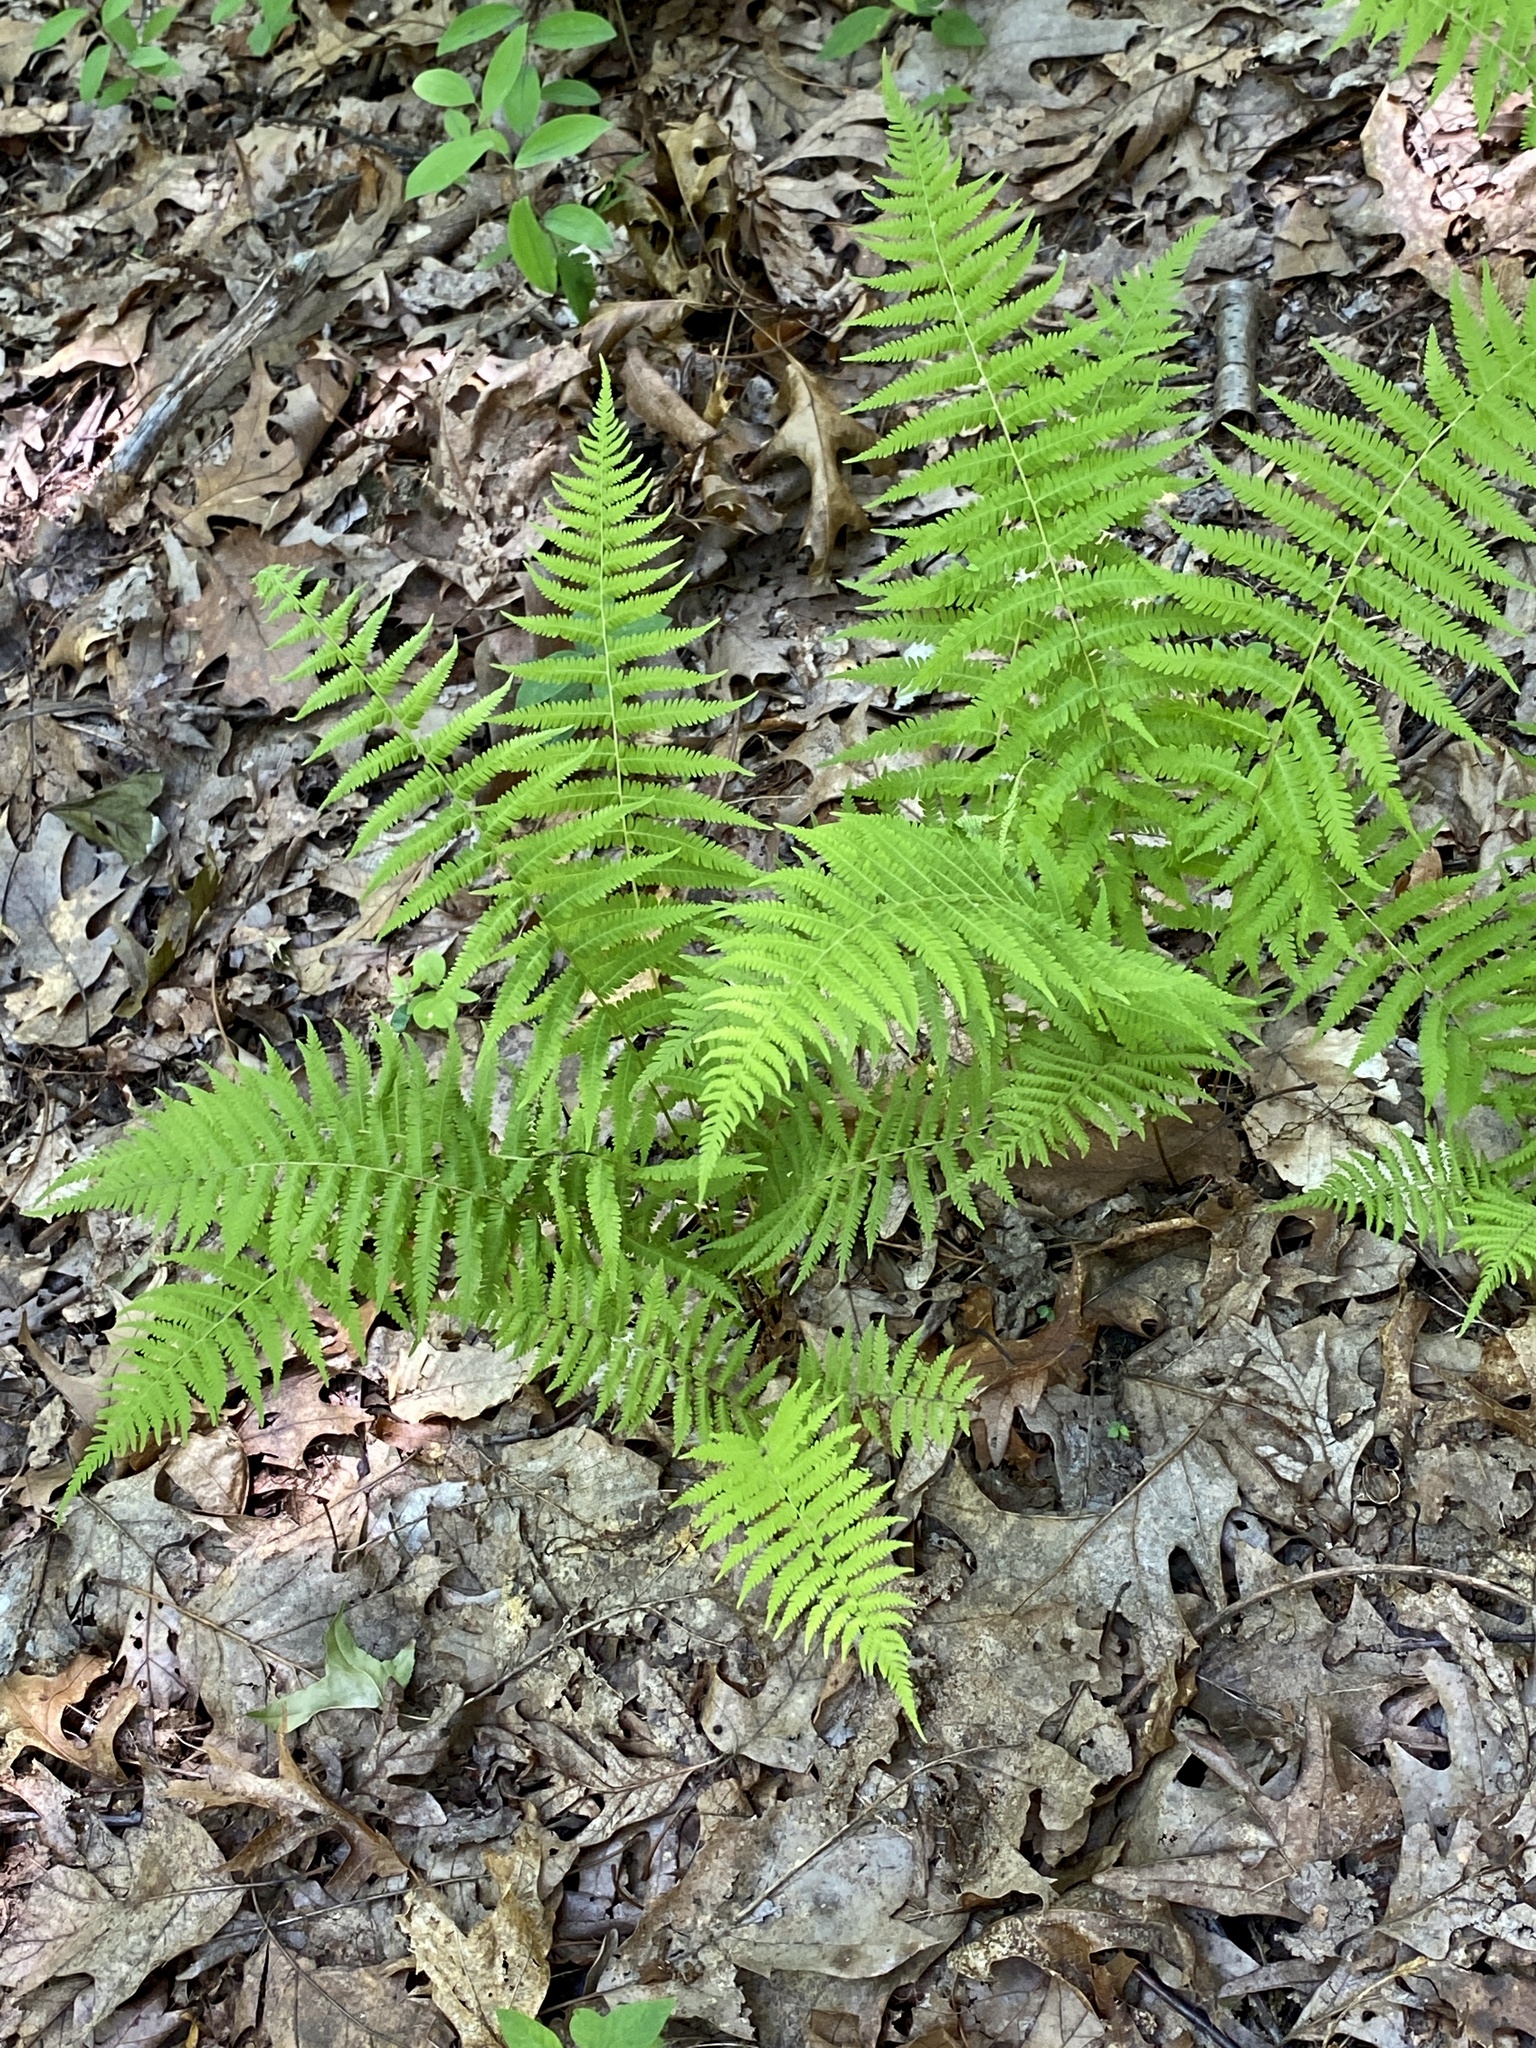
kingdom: Plantae
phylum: Tracheophyta
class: Polypodiopsida
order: Polypodiales
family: Thelypteridaceae
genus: Amauropelta
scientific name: Amauropelta noveboracensis
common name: New york fern
